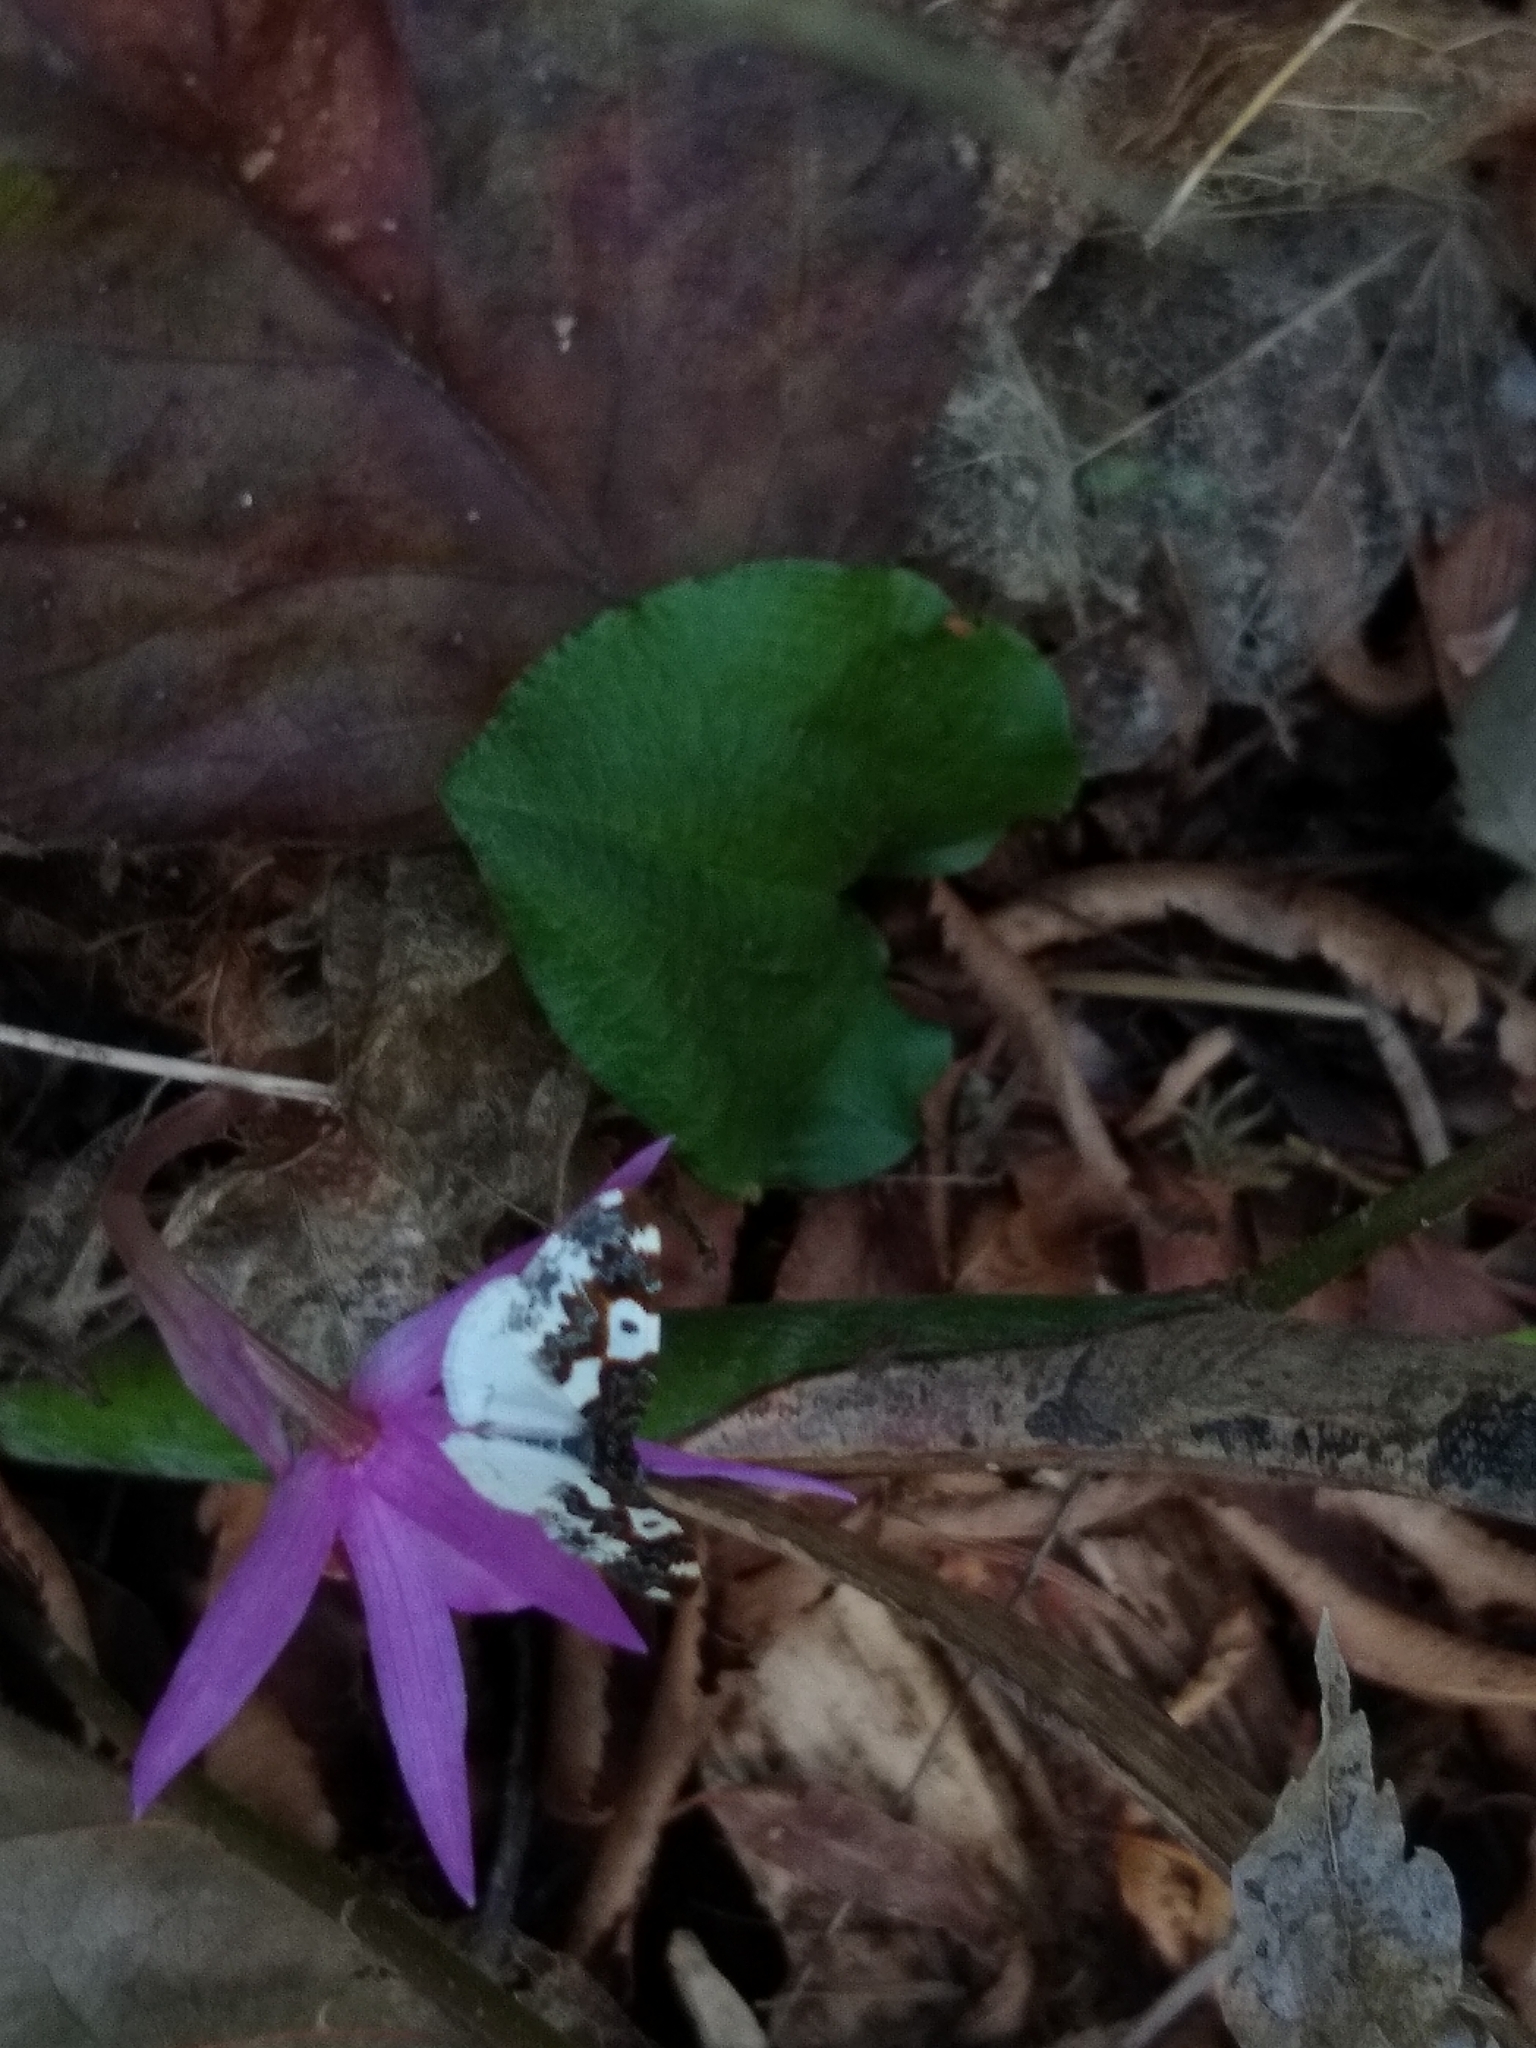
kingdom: Animalia
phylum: Arthropoda
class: Insecta
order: Lepidoptera
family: Geometridae
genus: Mesoleuca
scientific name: Mesoleuca gratulata
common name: Half-white carpet moth
